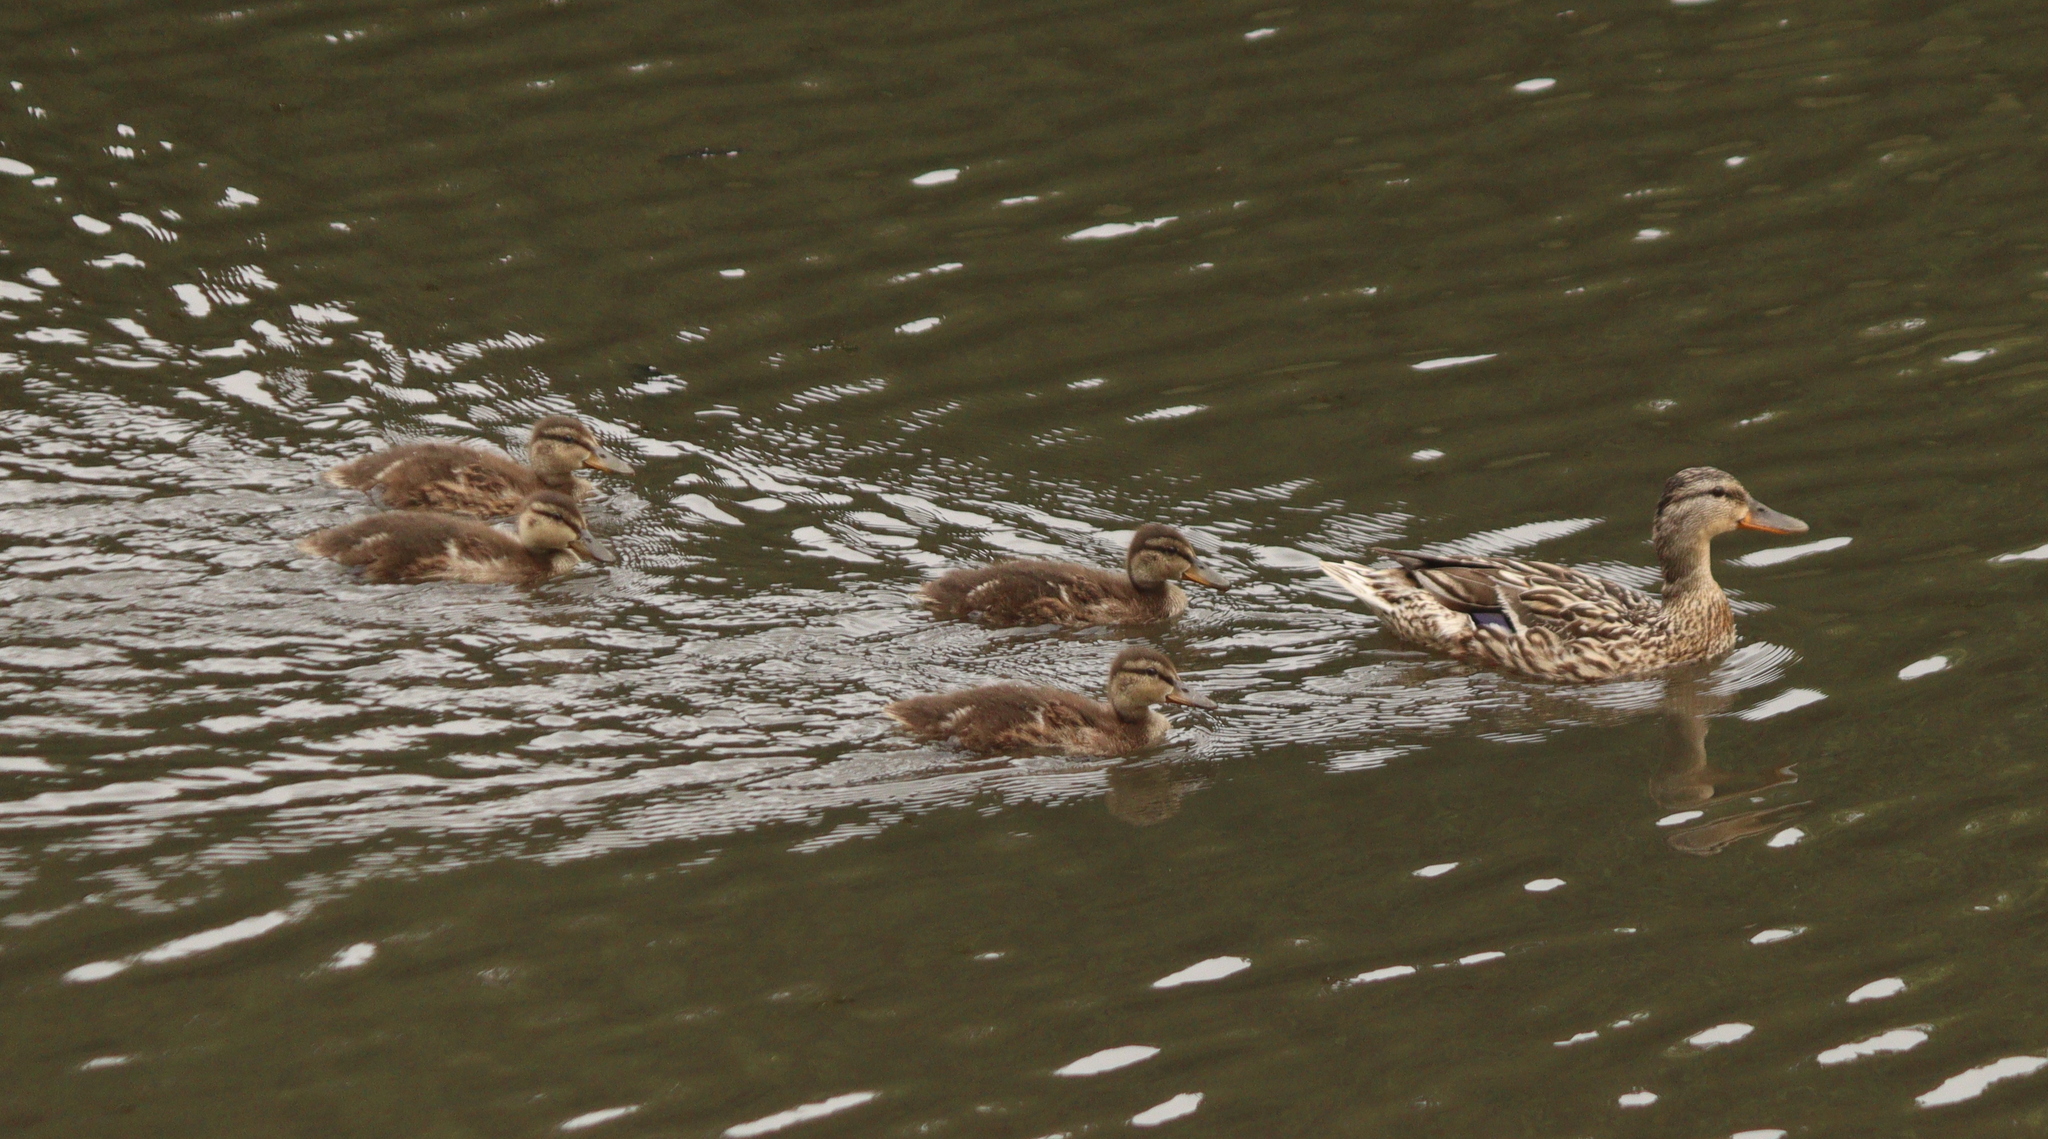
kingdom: Animalia
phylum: Chordata
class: Aves
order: Anseriformes
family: Anatidae
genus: Anas
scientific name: Anas platyrhynchos
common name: Mallard
